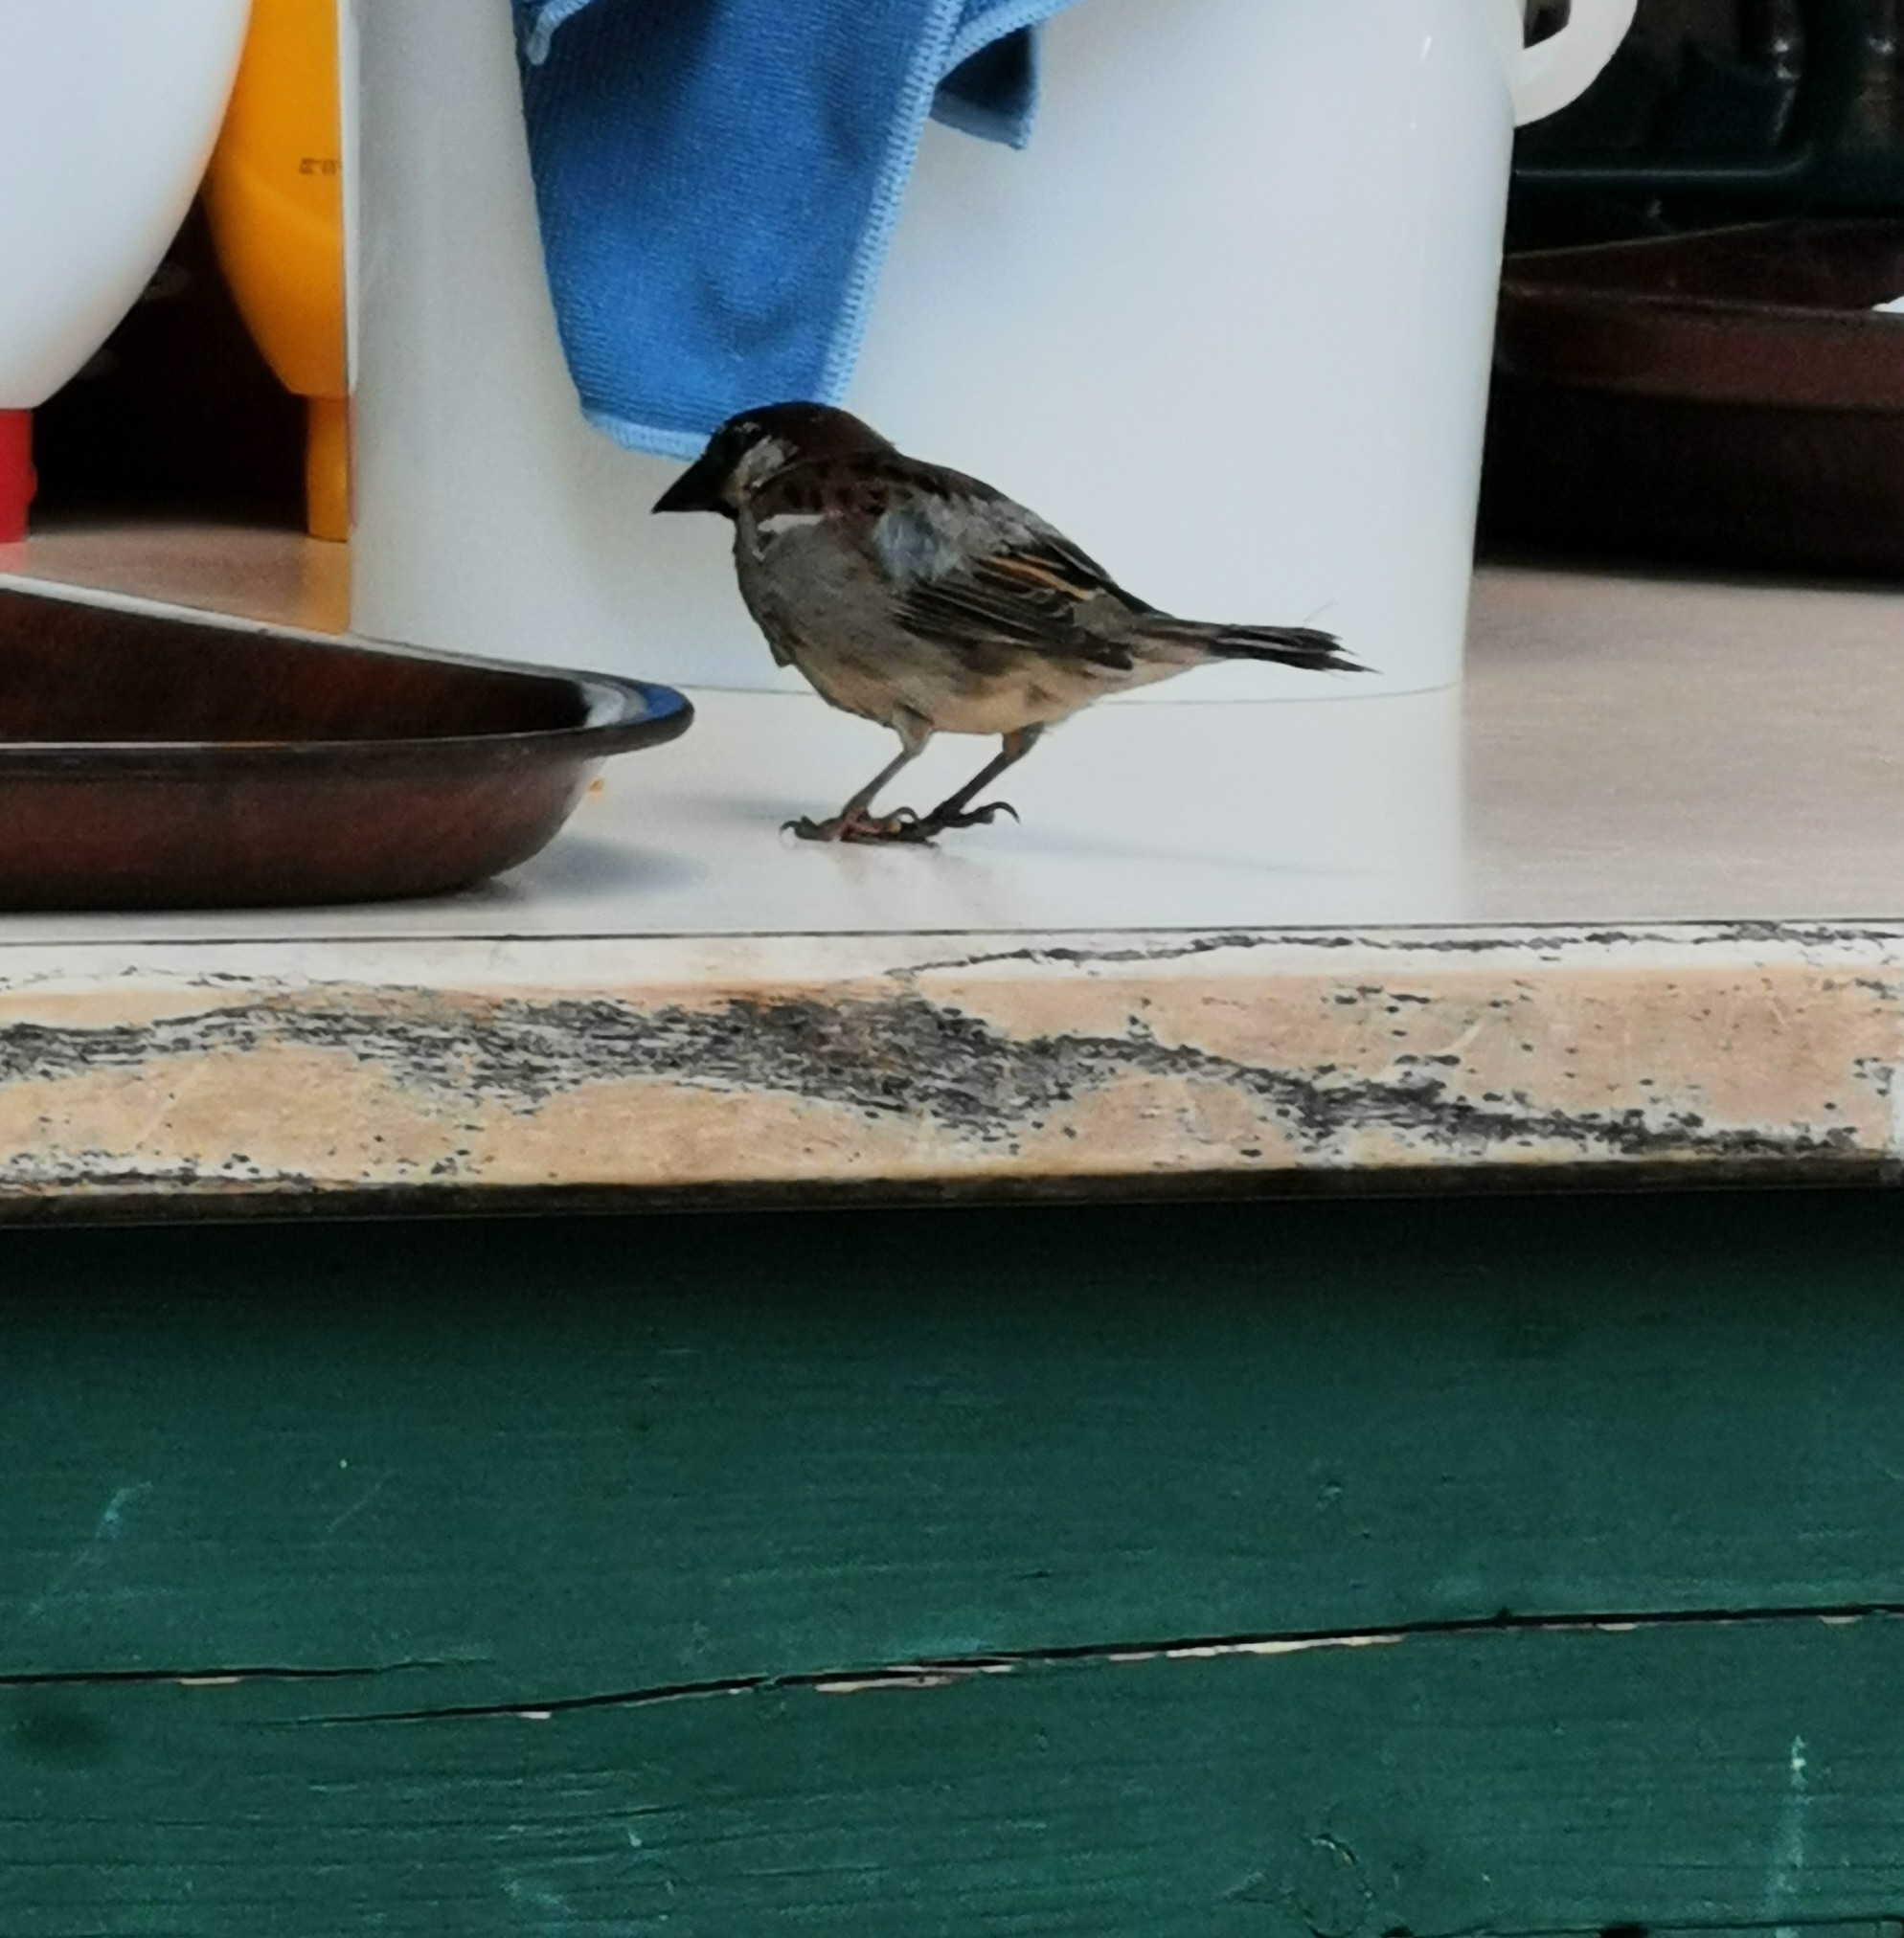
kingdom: Animalia
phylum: Chordata
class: Aves
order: Passeriformes
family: Passeridae
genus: Passer
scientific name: Passer domesticus
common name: House sparrow
